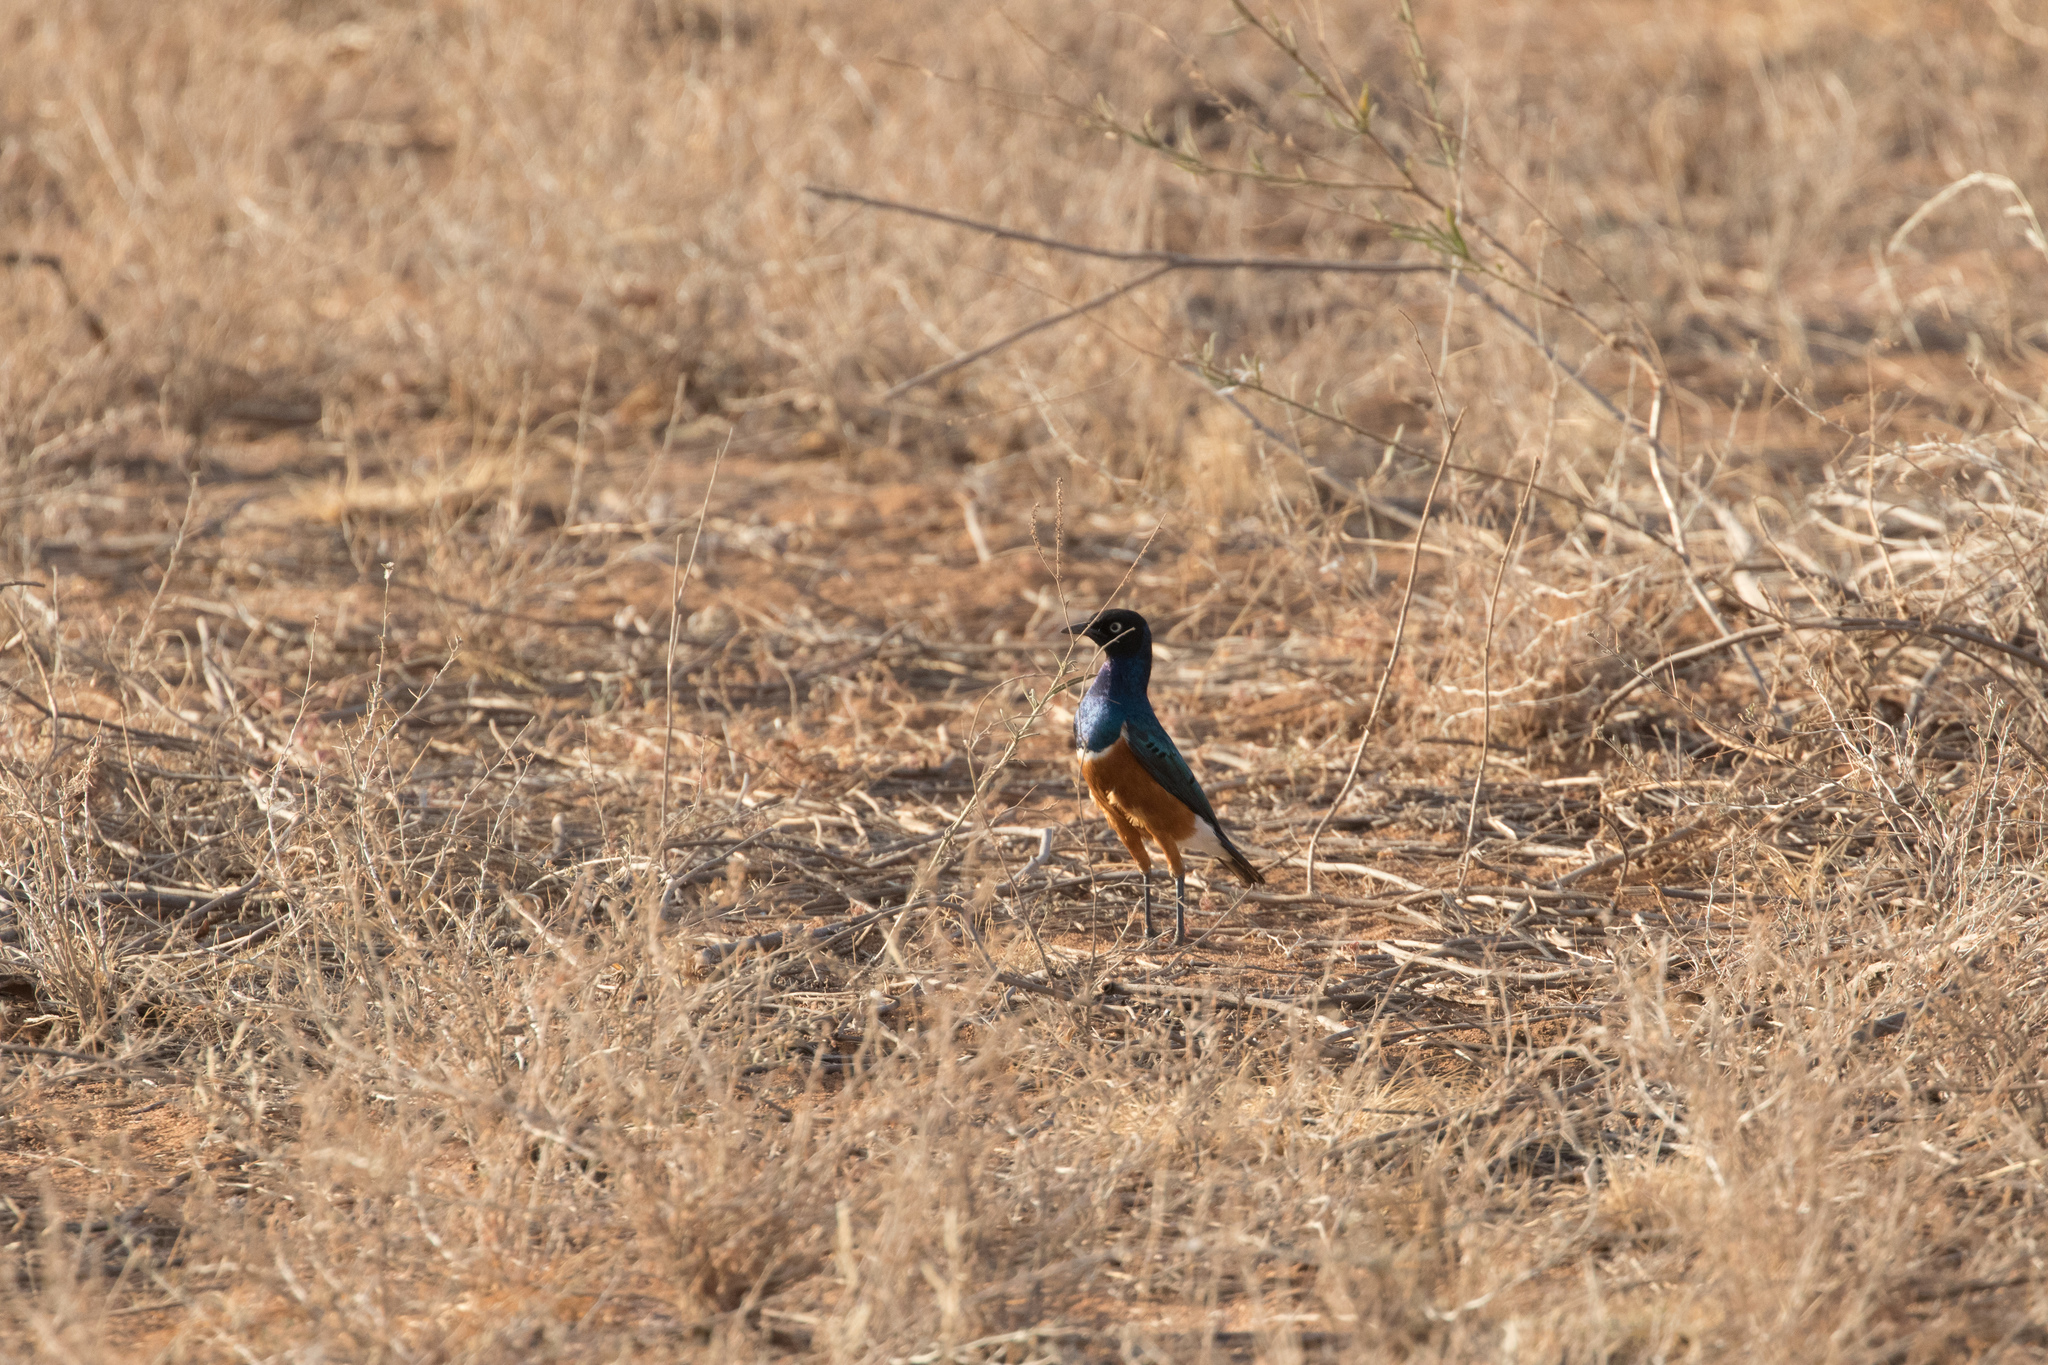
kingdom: Animalia
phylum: Chordata
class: Aves
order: Passeriformes
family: Sturnidae
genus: Lamprotornis
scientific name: Lamprotornis superbus
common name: Superb starling
